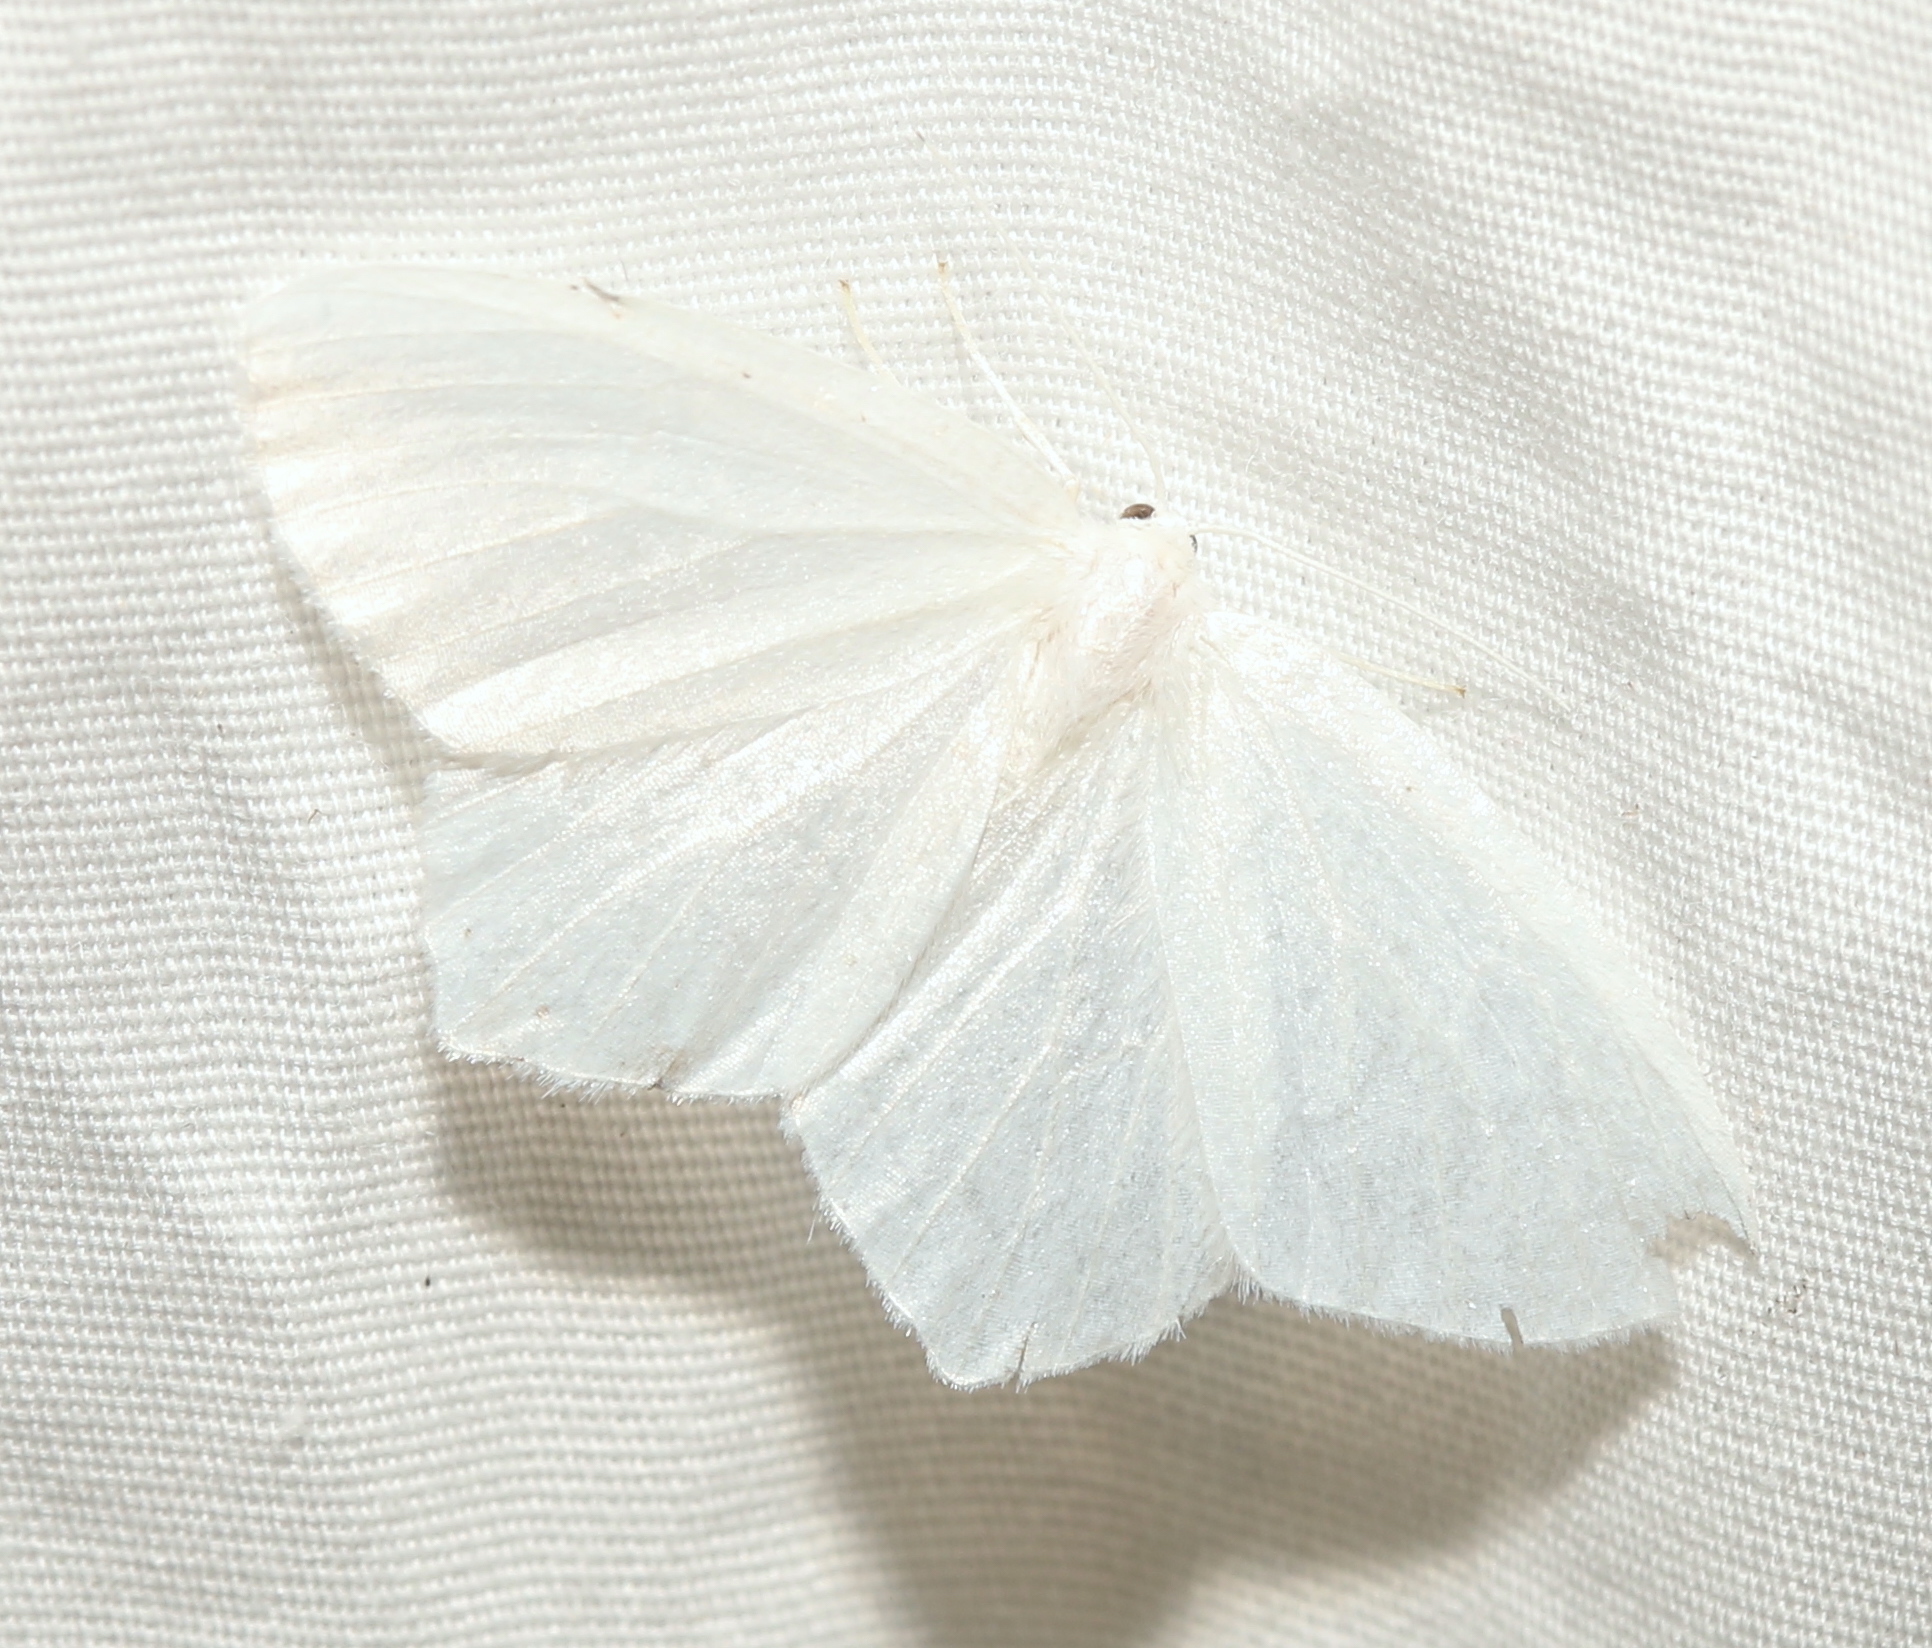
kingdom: Animalia
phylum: Arthropoda
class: Insecta
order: Lepidoptera
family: Geometridae
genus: Eugonobapta
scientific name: Eugonobapta nivosaria
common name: Snowy geometer
